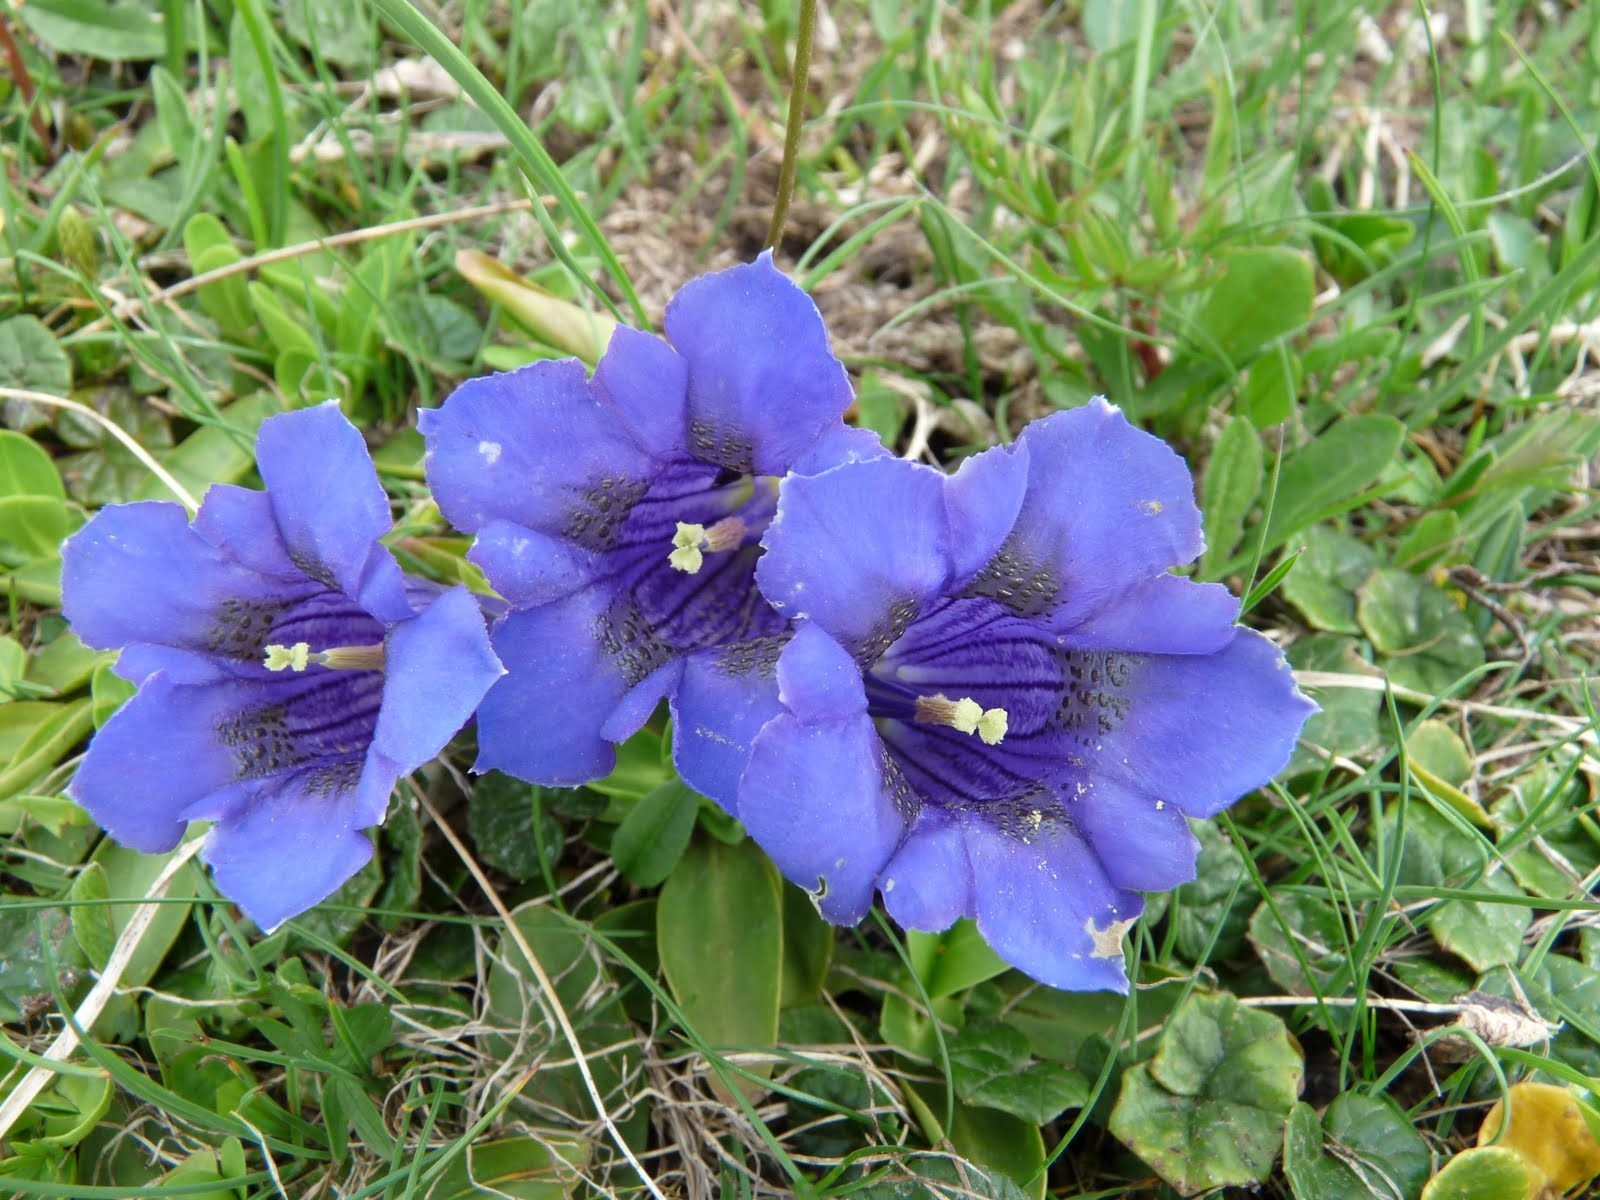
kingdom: Plantae
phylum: Tracheophyta
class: Magnoliopsida
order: Gentianales
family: Gentianaceae
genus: Gentiana
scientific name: Gentiana acaulis
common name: Trumpet gentian
